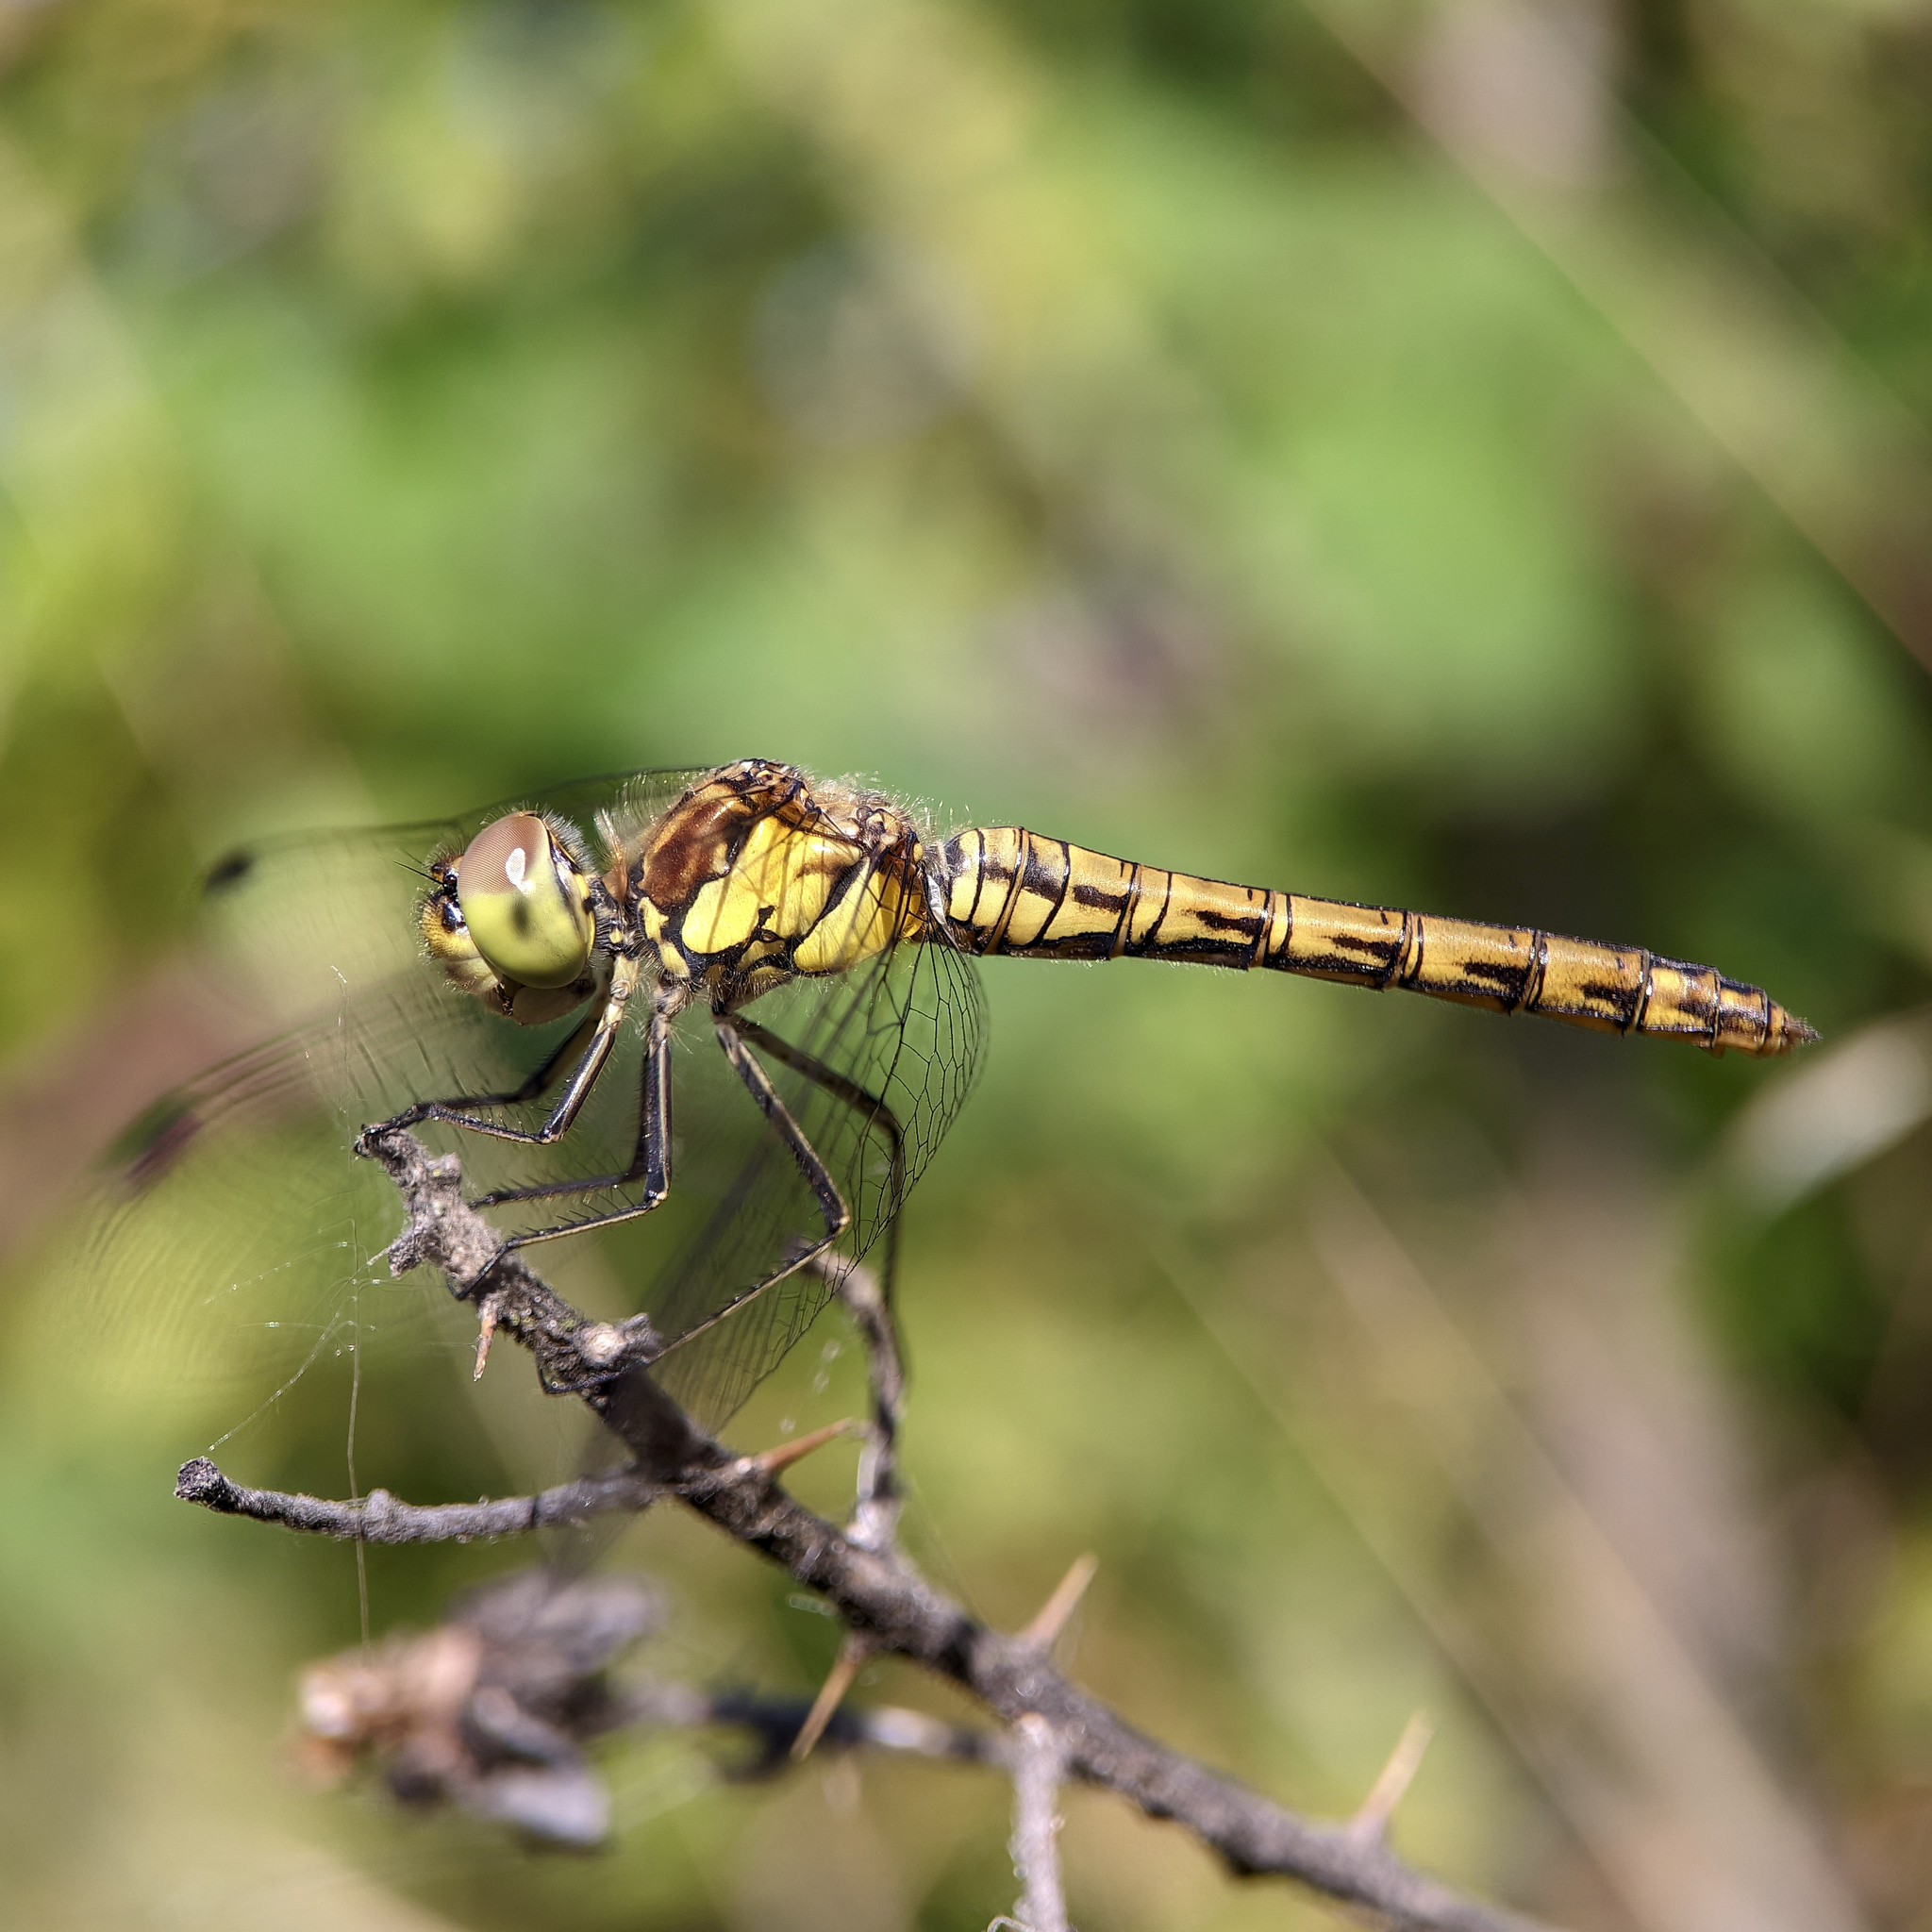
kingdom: Animalia
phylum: Arthropoda
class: Insecta
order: Odonata
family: Libellulidae
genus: Sympetrum
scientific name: Sympetrum striolatum
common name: Common darter
